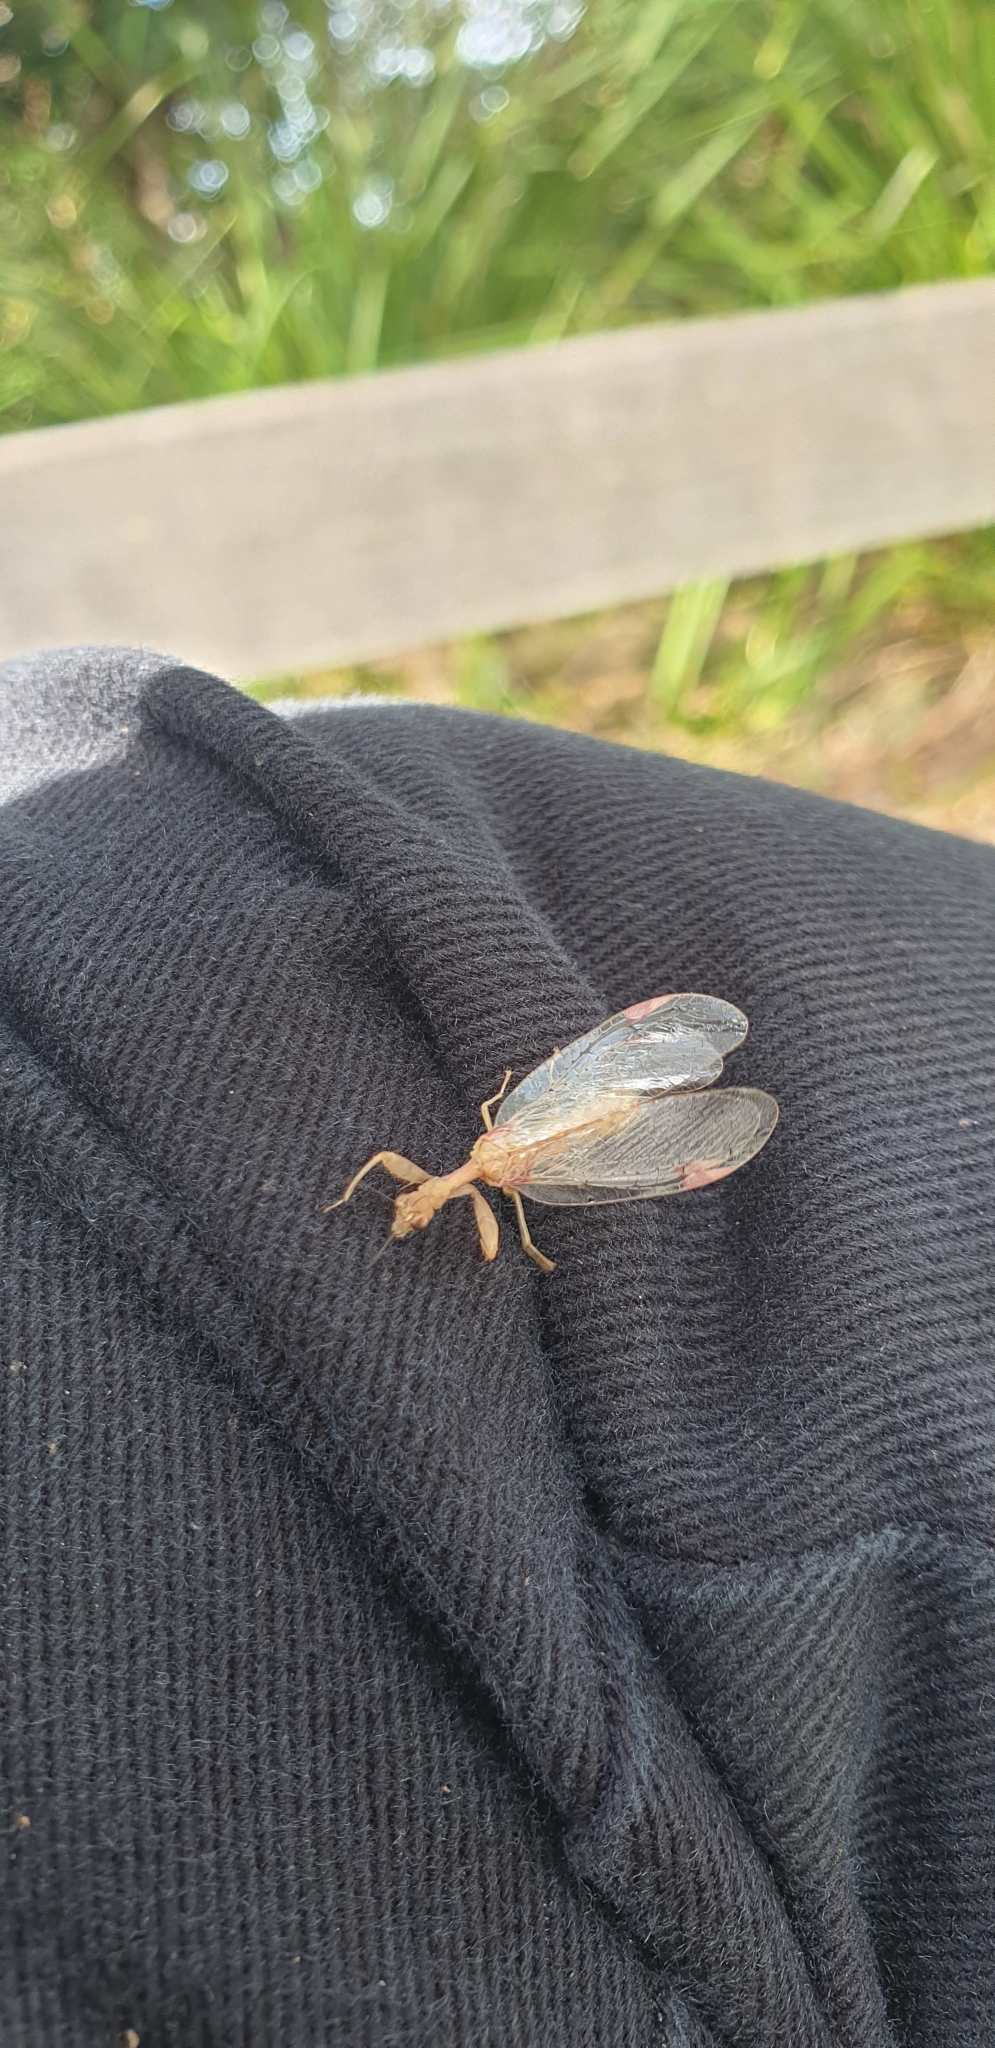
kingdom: Animalia
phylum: Arthropoda
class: Insecta
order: Neuroptera
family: Mantispidae
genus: Ditaxis
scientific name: Ditaxis biseriata
